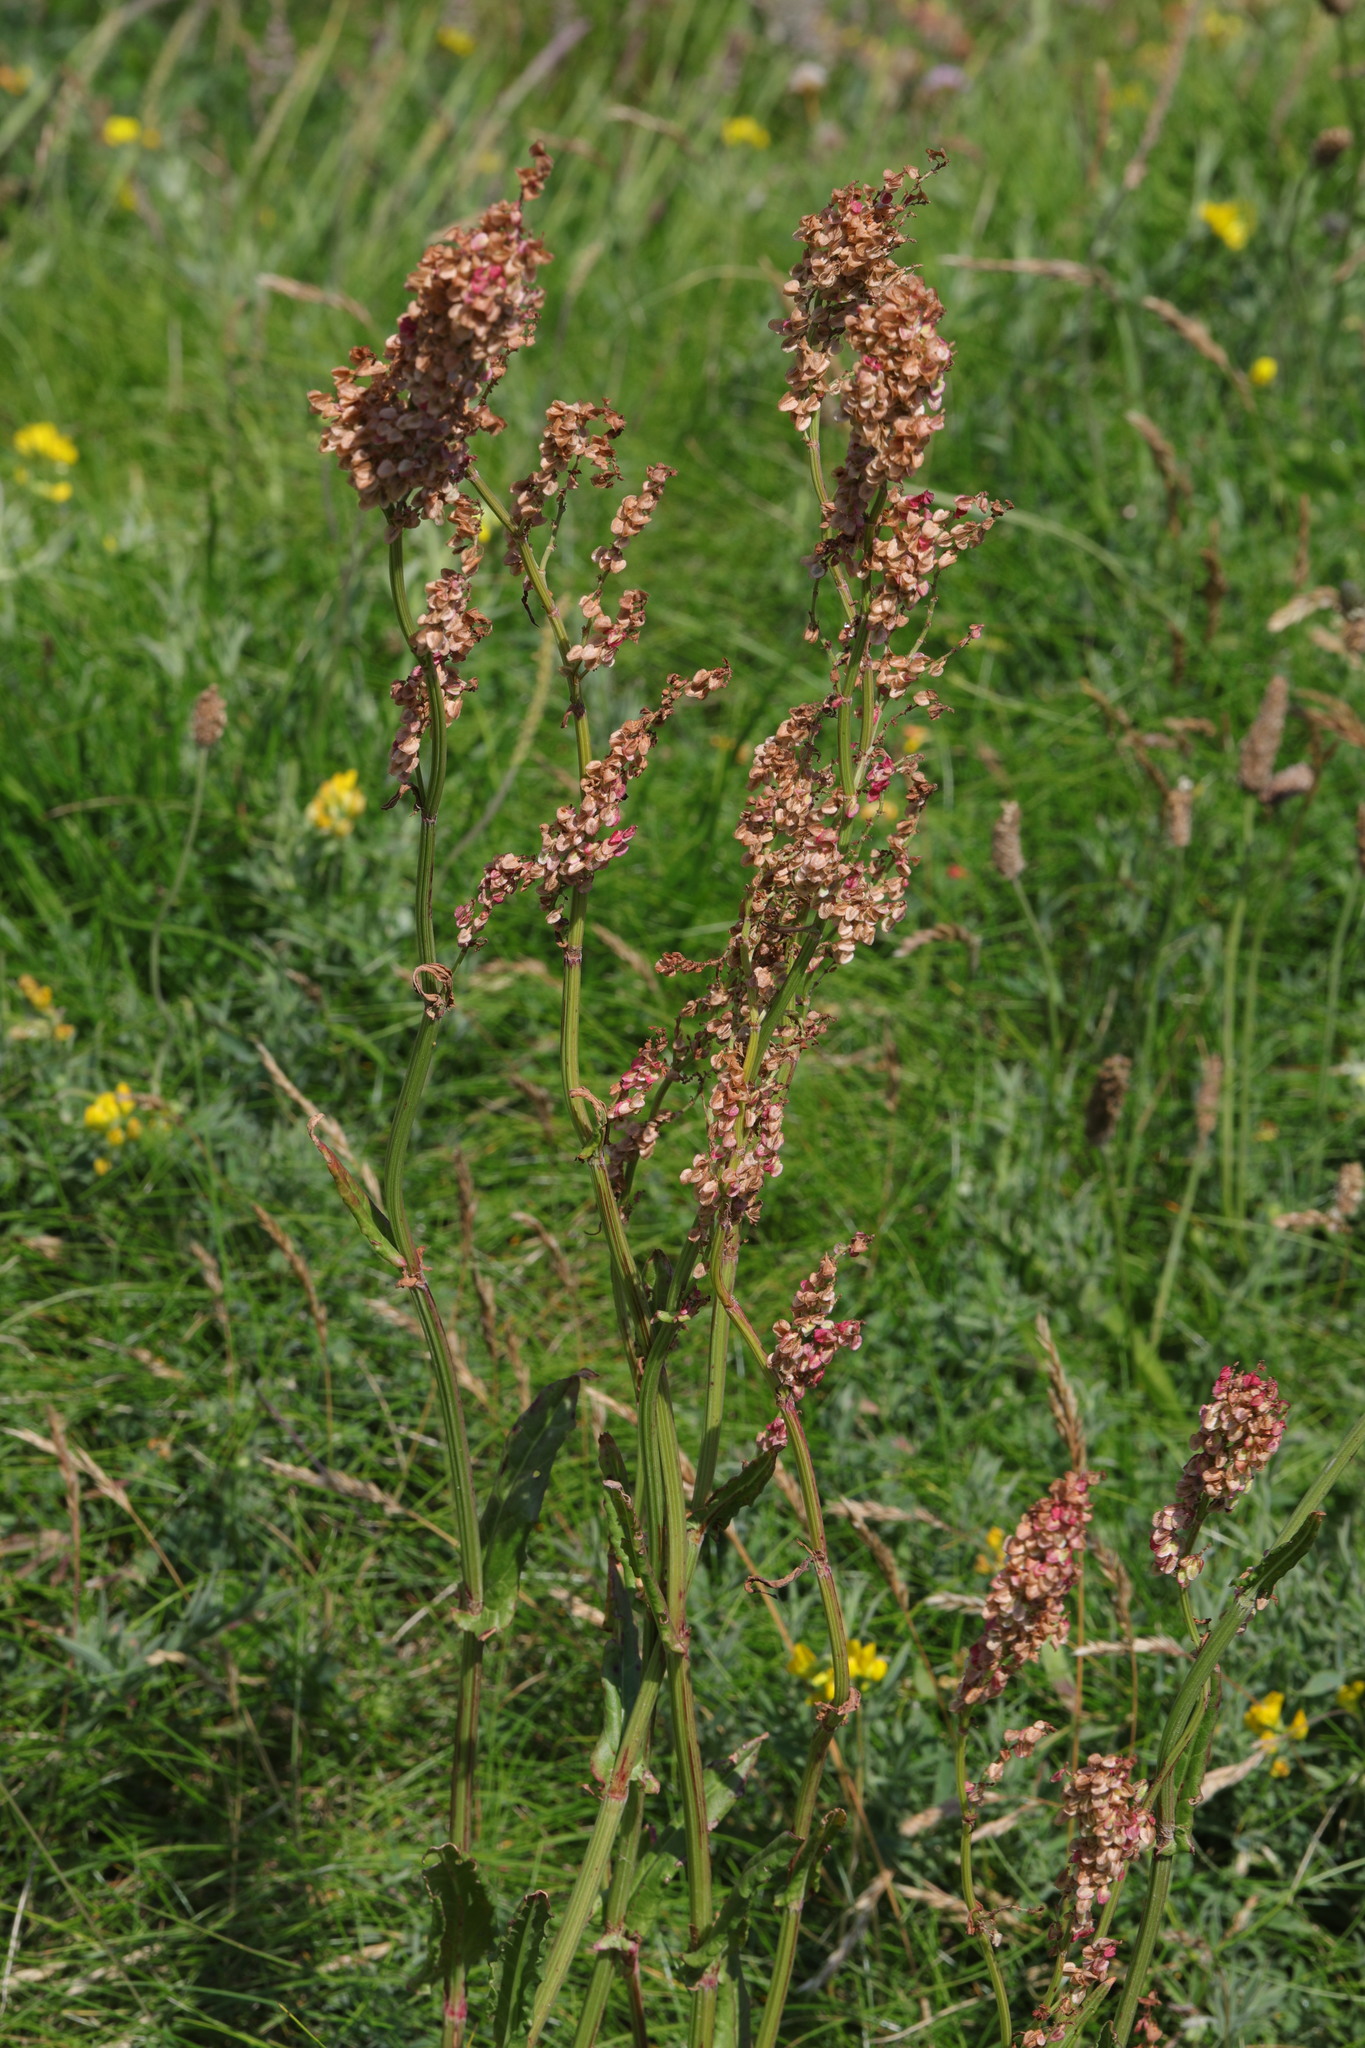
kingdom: Plantae
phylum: Tracheophyta
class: Magnoliopsida
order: Caryophyllales
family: Polygonaceae
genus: Rumex
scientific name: Rumex acetosa
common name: Garden sorrel
